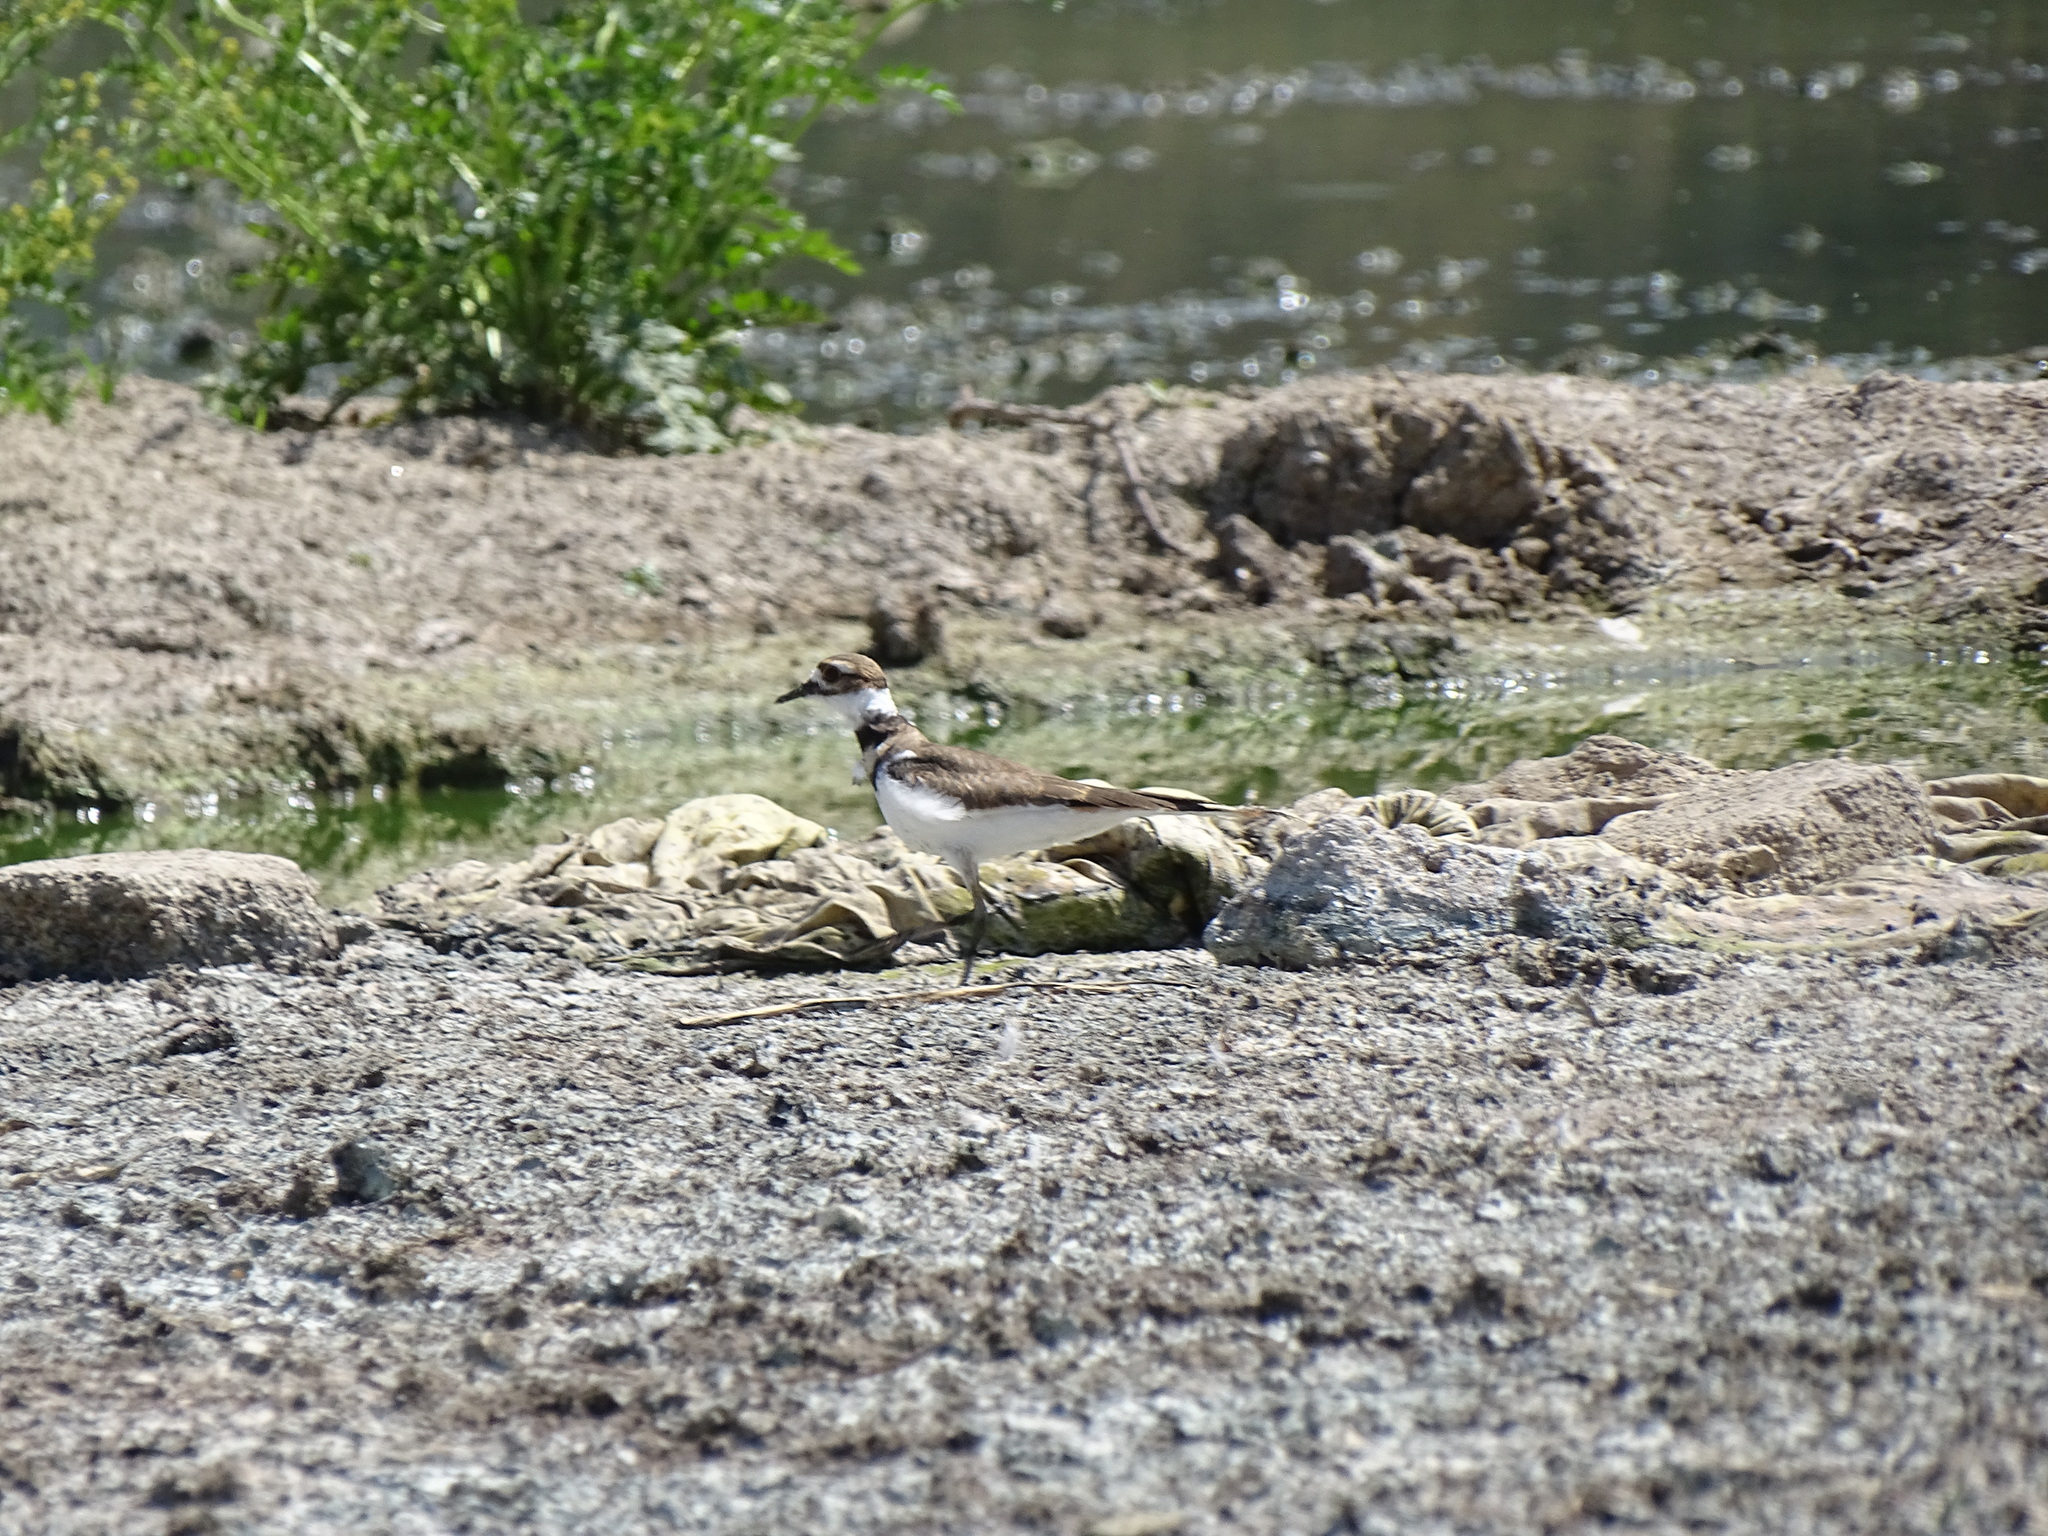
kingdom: Animalia
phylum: Chordata
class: Aves
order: Charadriiformes
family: Charadriidae
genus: Charadrius
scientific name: Charadrius vociferus
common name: Killdeer
